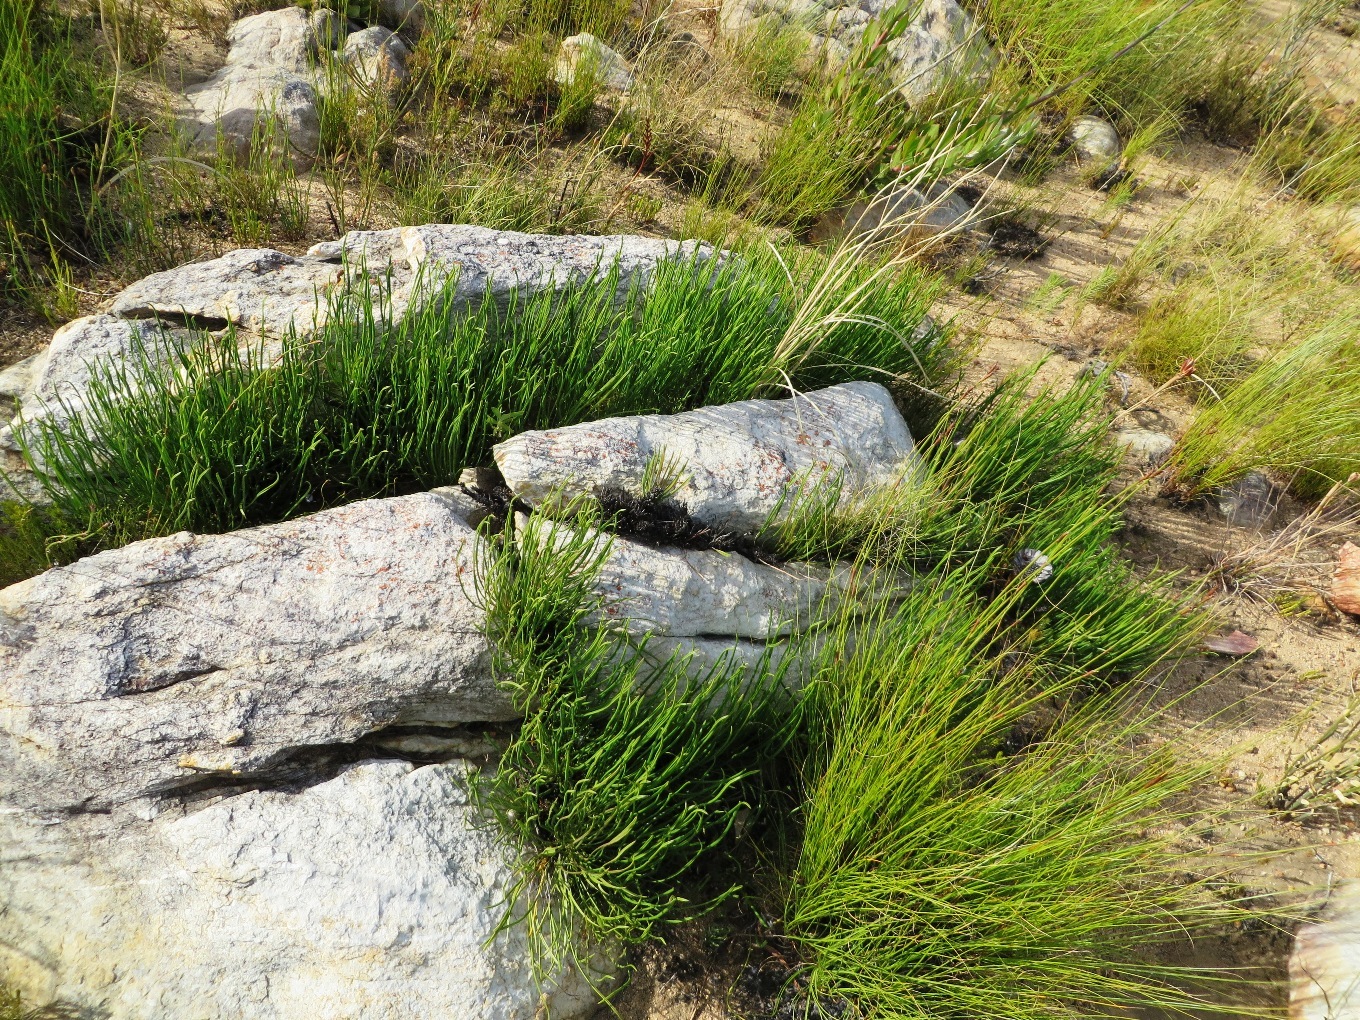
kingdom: Plantae
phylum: Tracheophyta
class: Magnoliopsida
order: Proteales
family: Proteaceae
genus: Protea
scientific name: Protea scorzonerifolia
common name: Channel-leaf sugarbush
